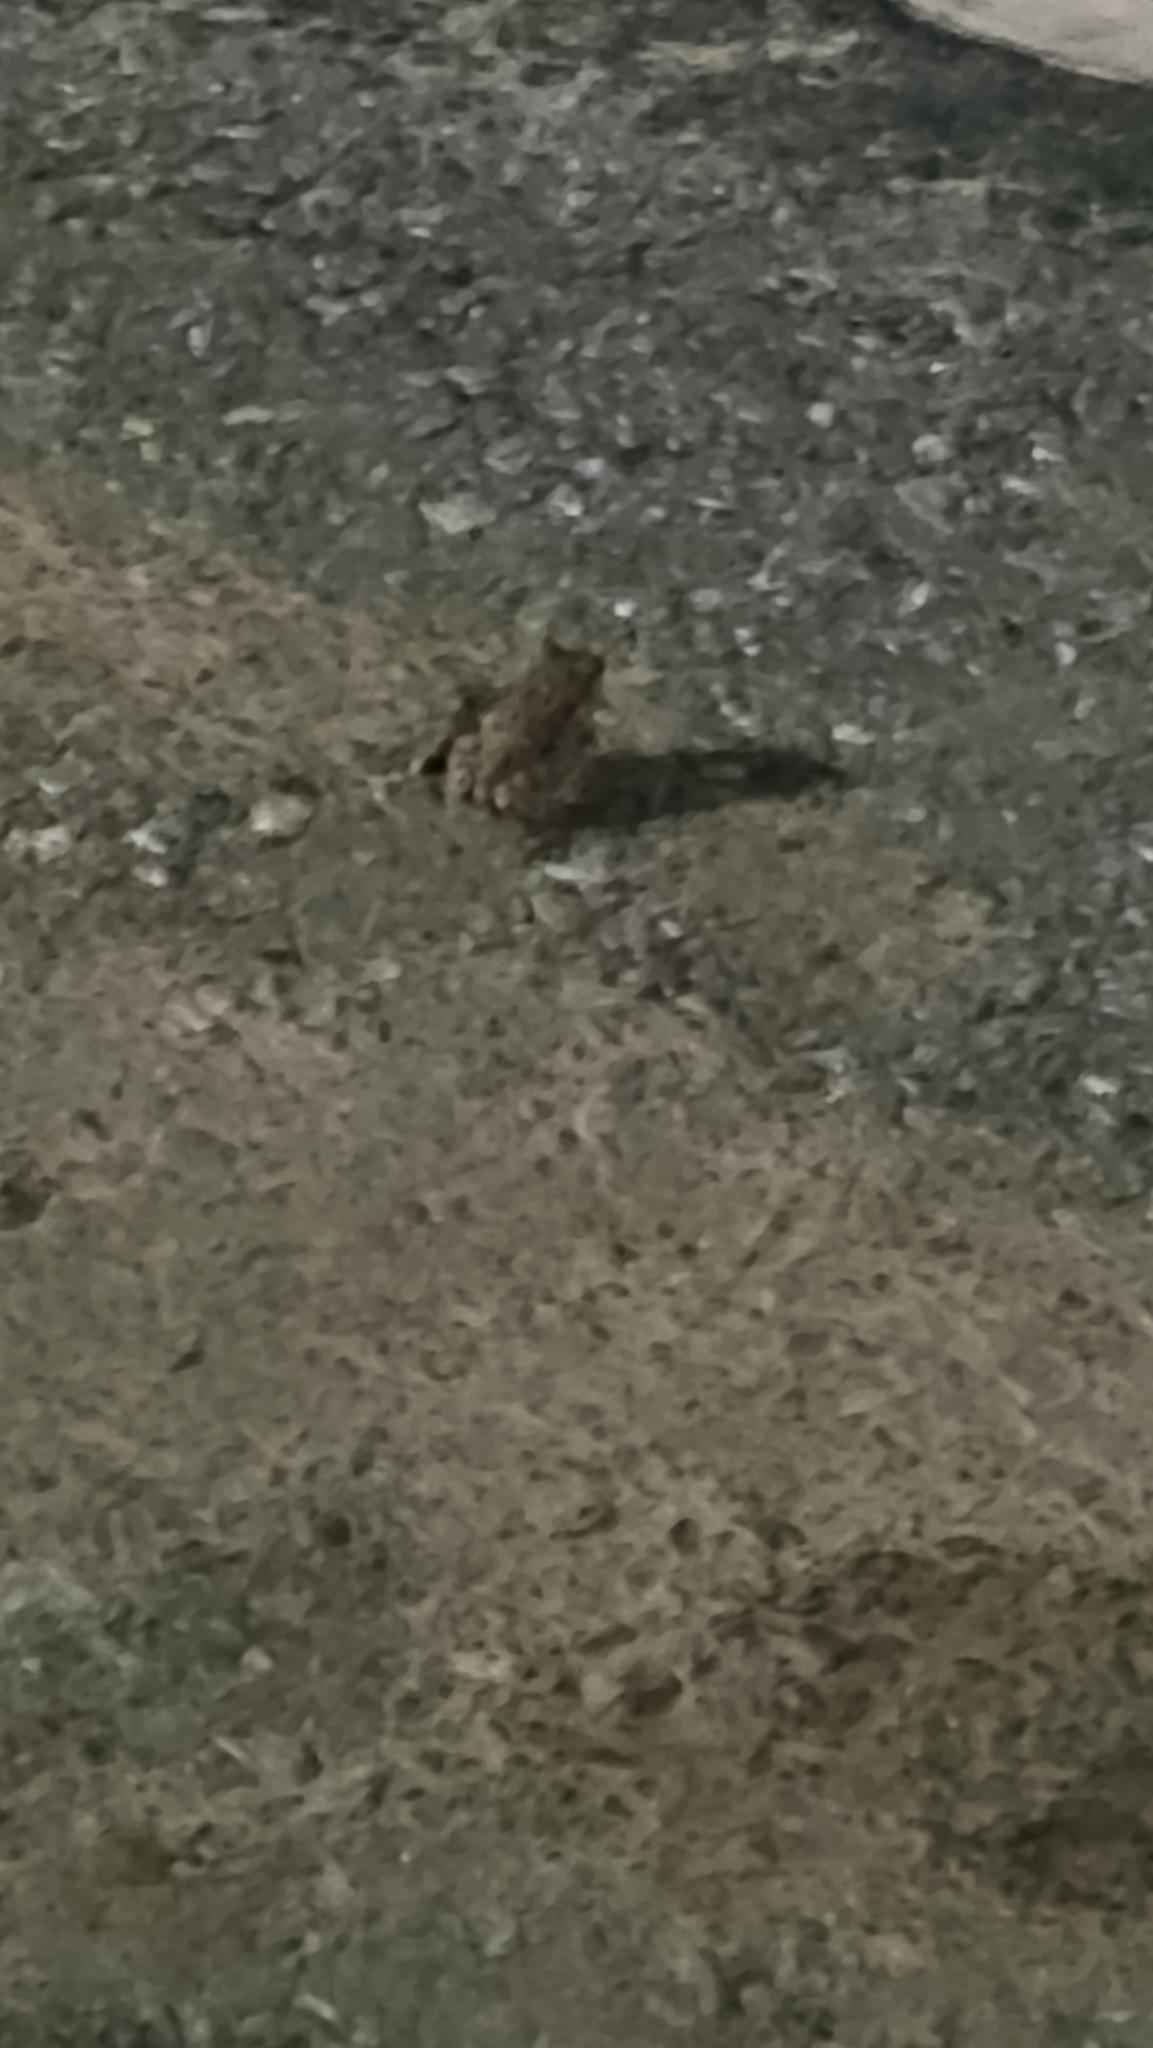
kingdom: Animalia
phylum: Chordata
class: Amphibia
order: Anura
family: Bufonidae
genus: Anaxyrus
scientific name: Anaxyrus woodhousii
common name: Woodhouse's toad
